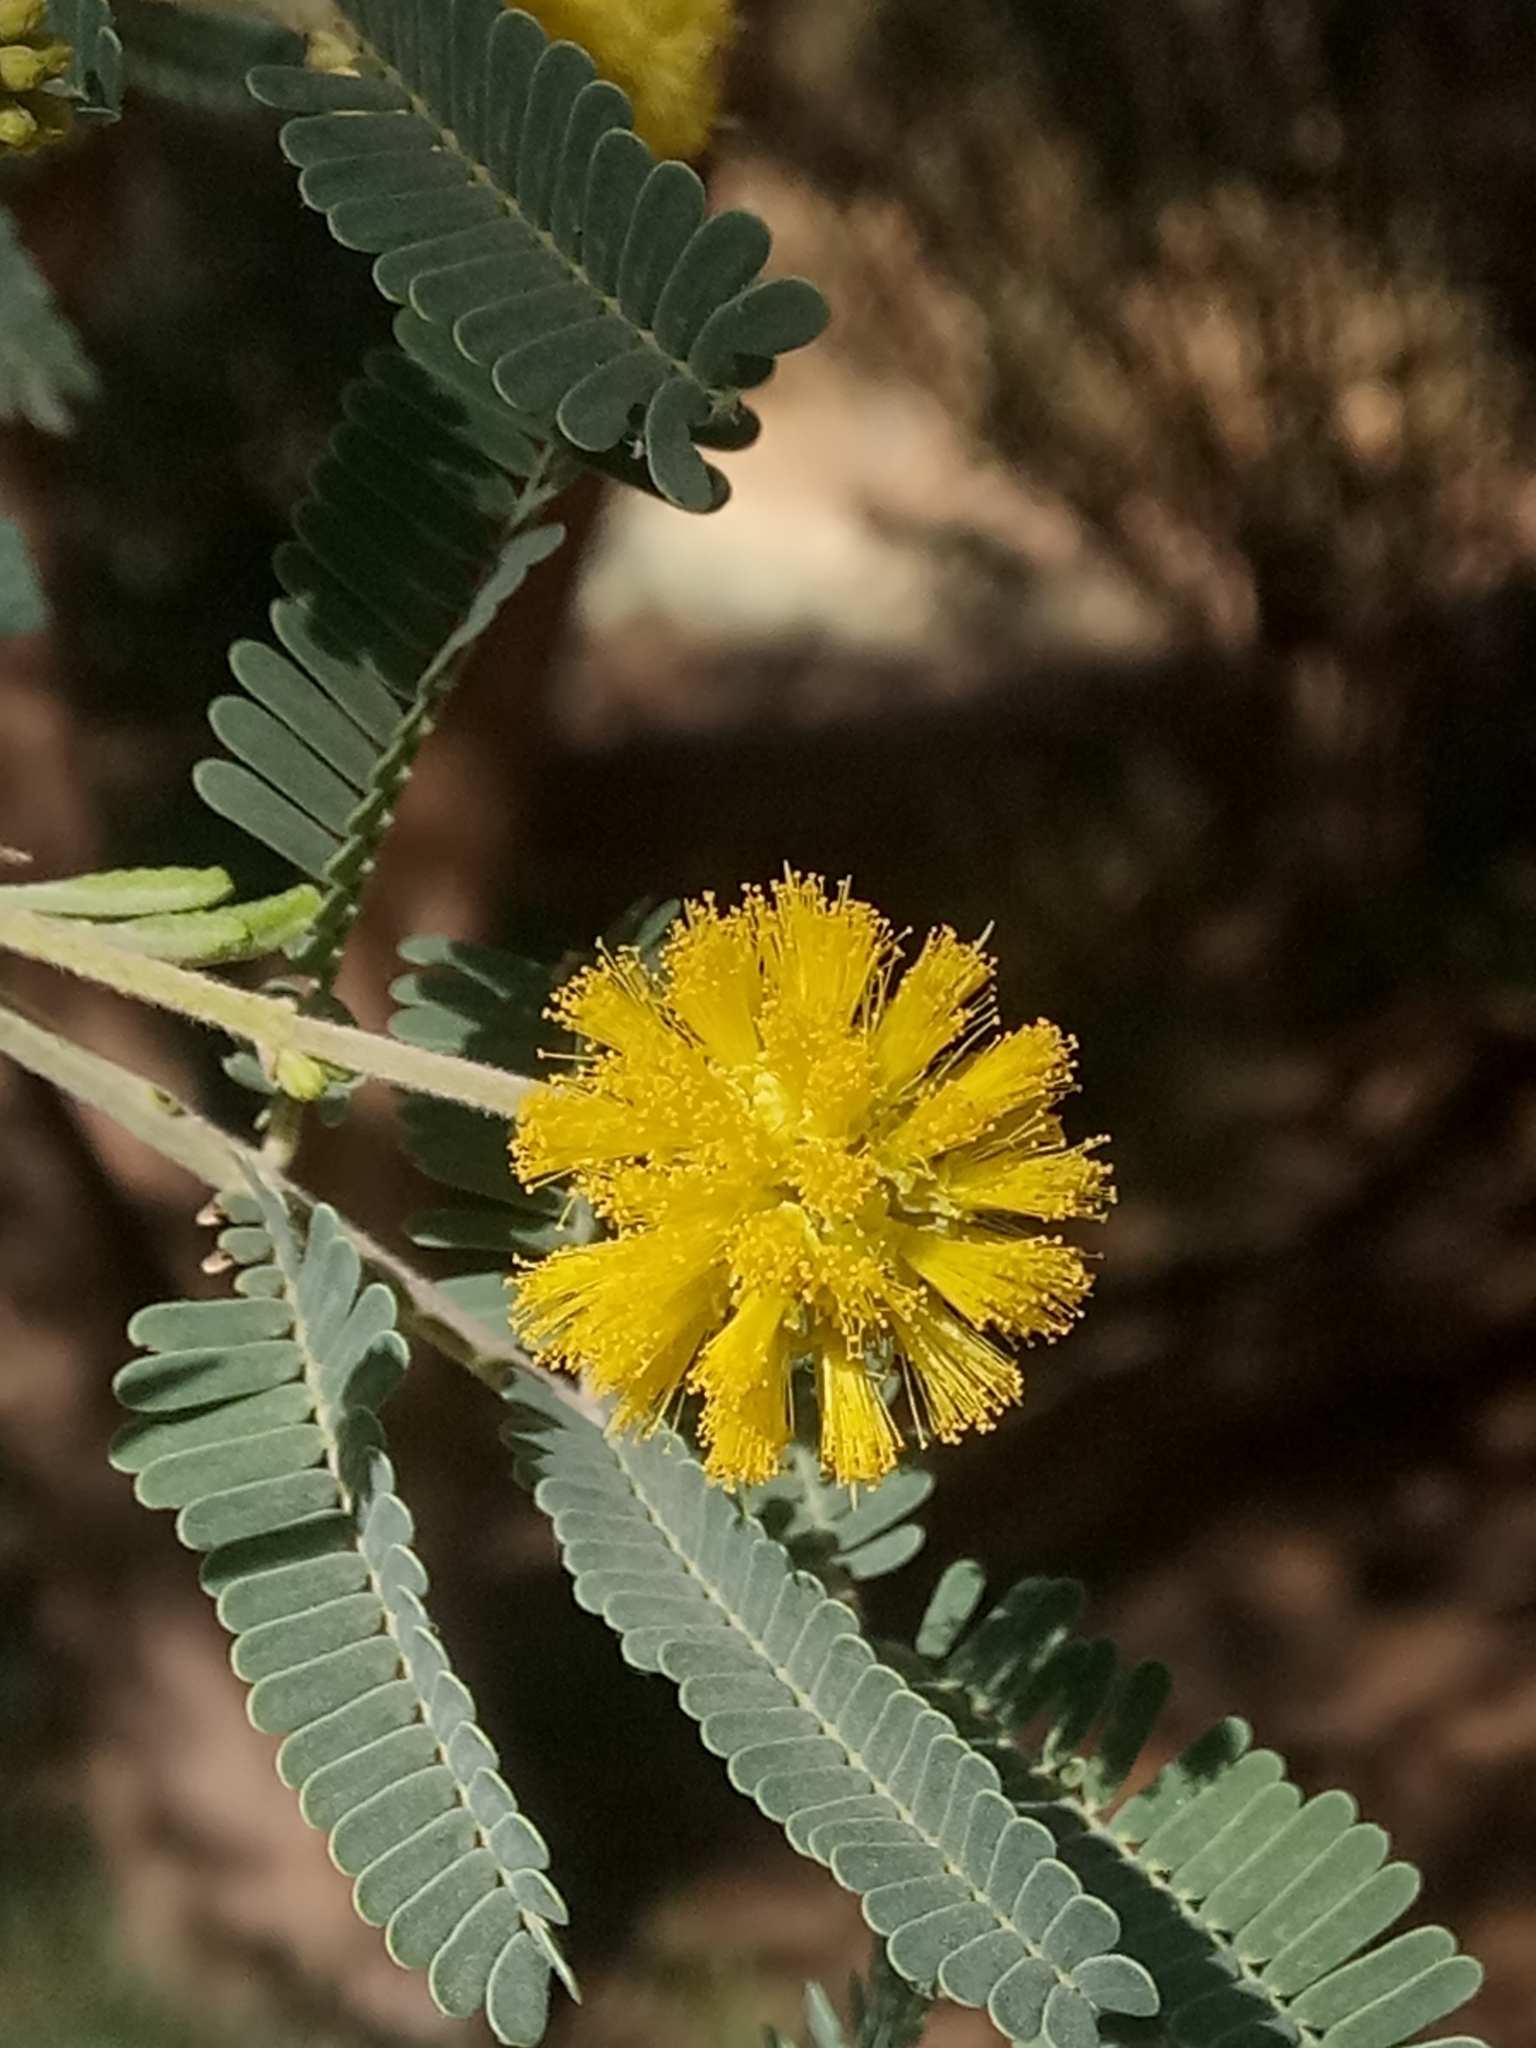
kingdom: Plantae
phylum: Tracheophyta
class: Magnoliopsida
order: Fabales
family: Fabaceae
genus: Vachellia
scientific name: Vachellia nilotica
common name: Arabic gumtree
